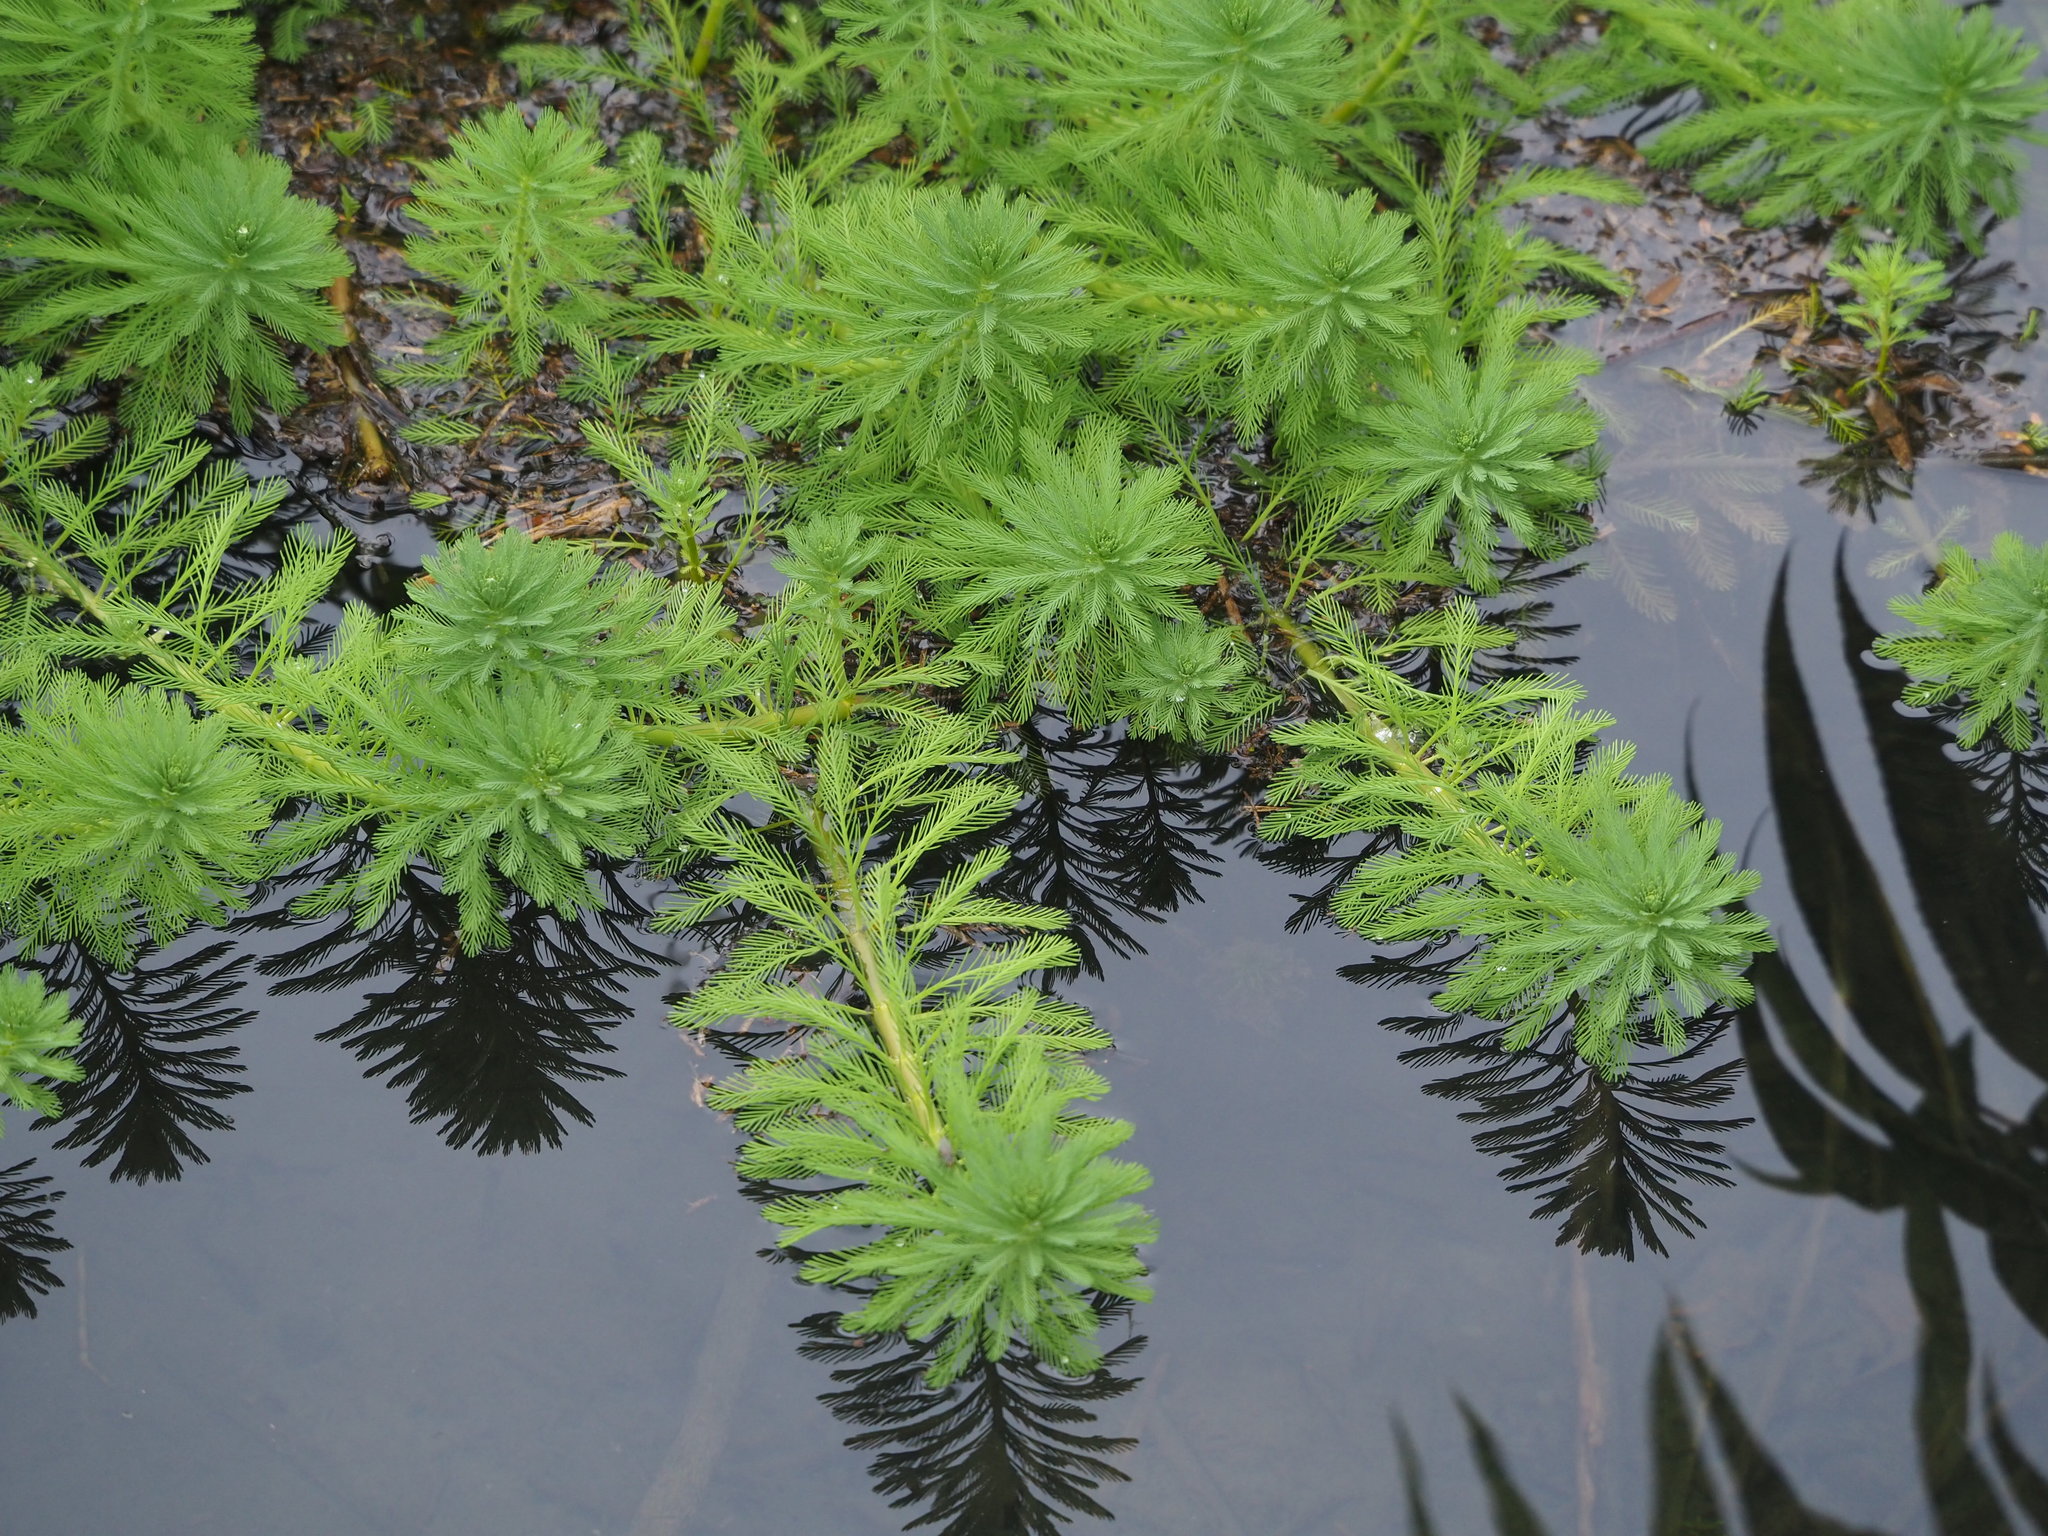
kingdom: Plantae
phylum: Tracheophyta
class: Magnoliopsida
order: Saxifragales
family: Haloragaceae
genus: Myriophyllum
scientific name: Myriophyllum aquaticum
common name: Parrot's feather
